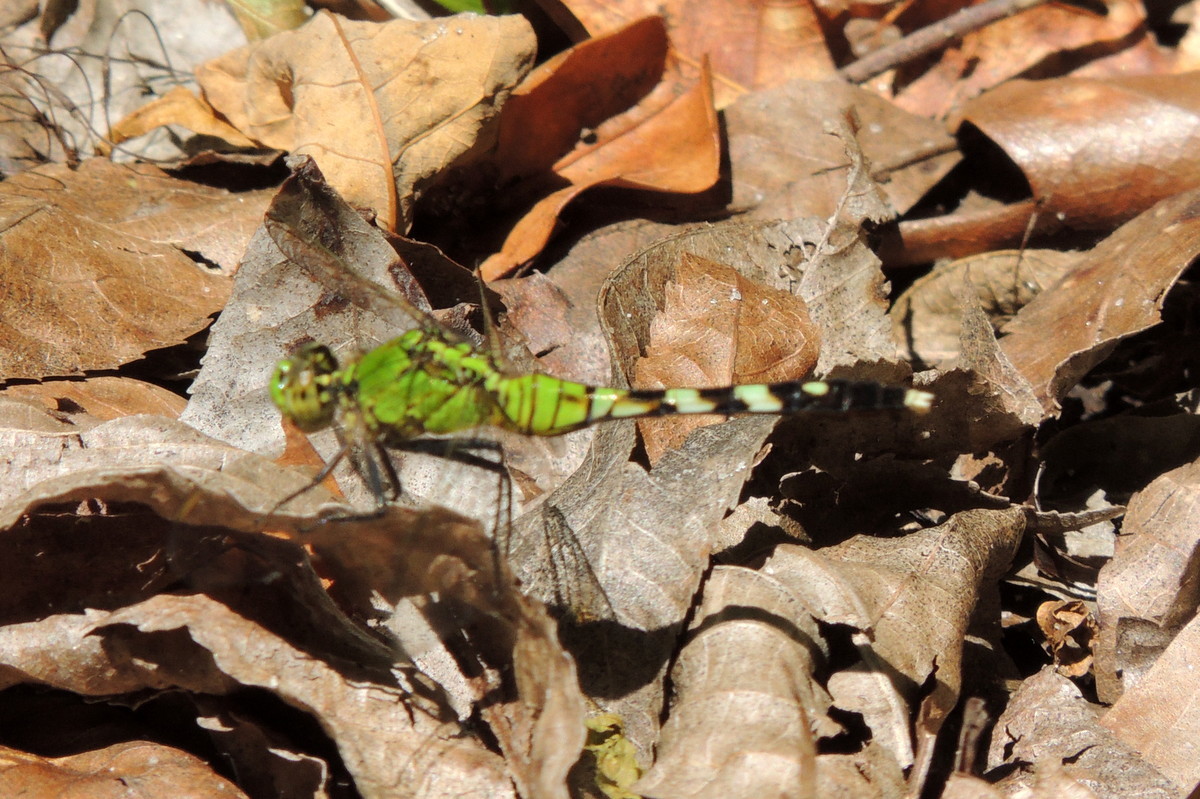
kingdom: Animalia
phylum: Arthropoda
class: Insecta
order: Odonata
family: Libellulidae
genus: Erythemis
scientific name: Erythemis simplicicollis
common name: Eastern pondhawk
